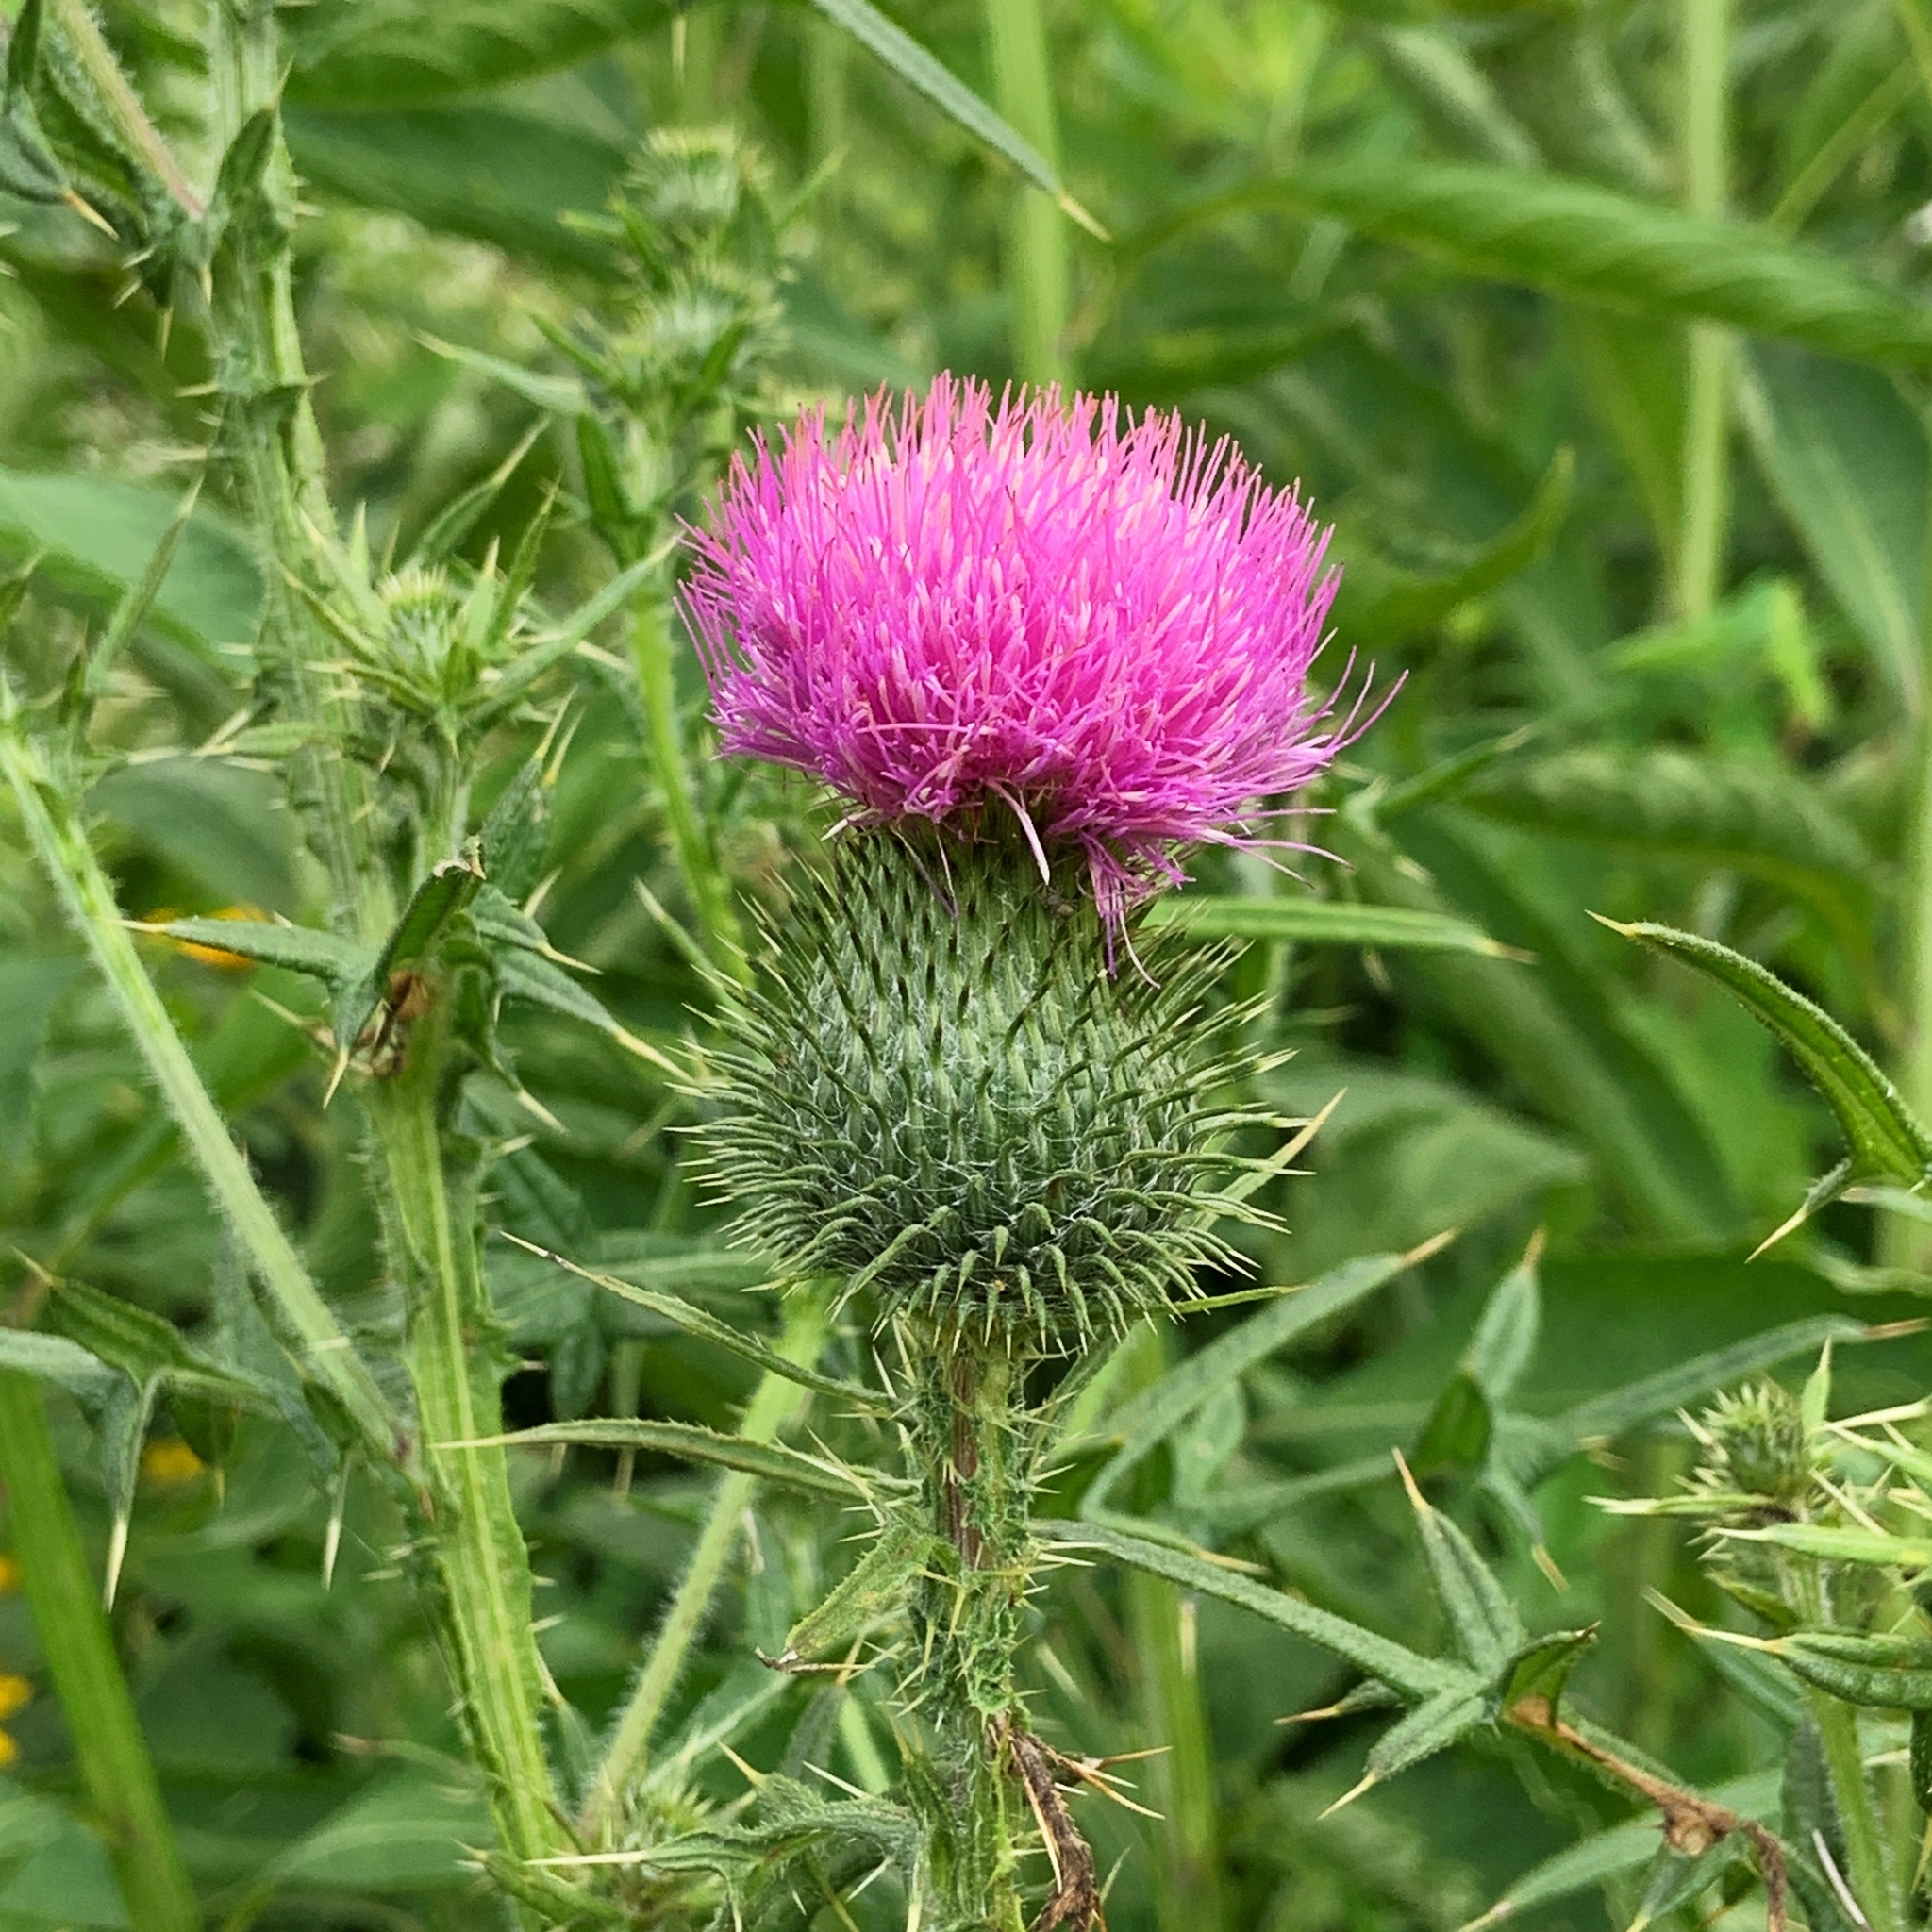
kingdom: Plantae
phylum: Tracheophyta
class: Magnoliopsida
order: Asterales
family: Asteraceae
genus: Cirsium
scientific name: Cirsium vulgare
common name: Bull thistle
